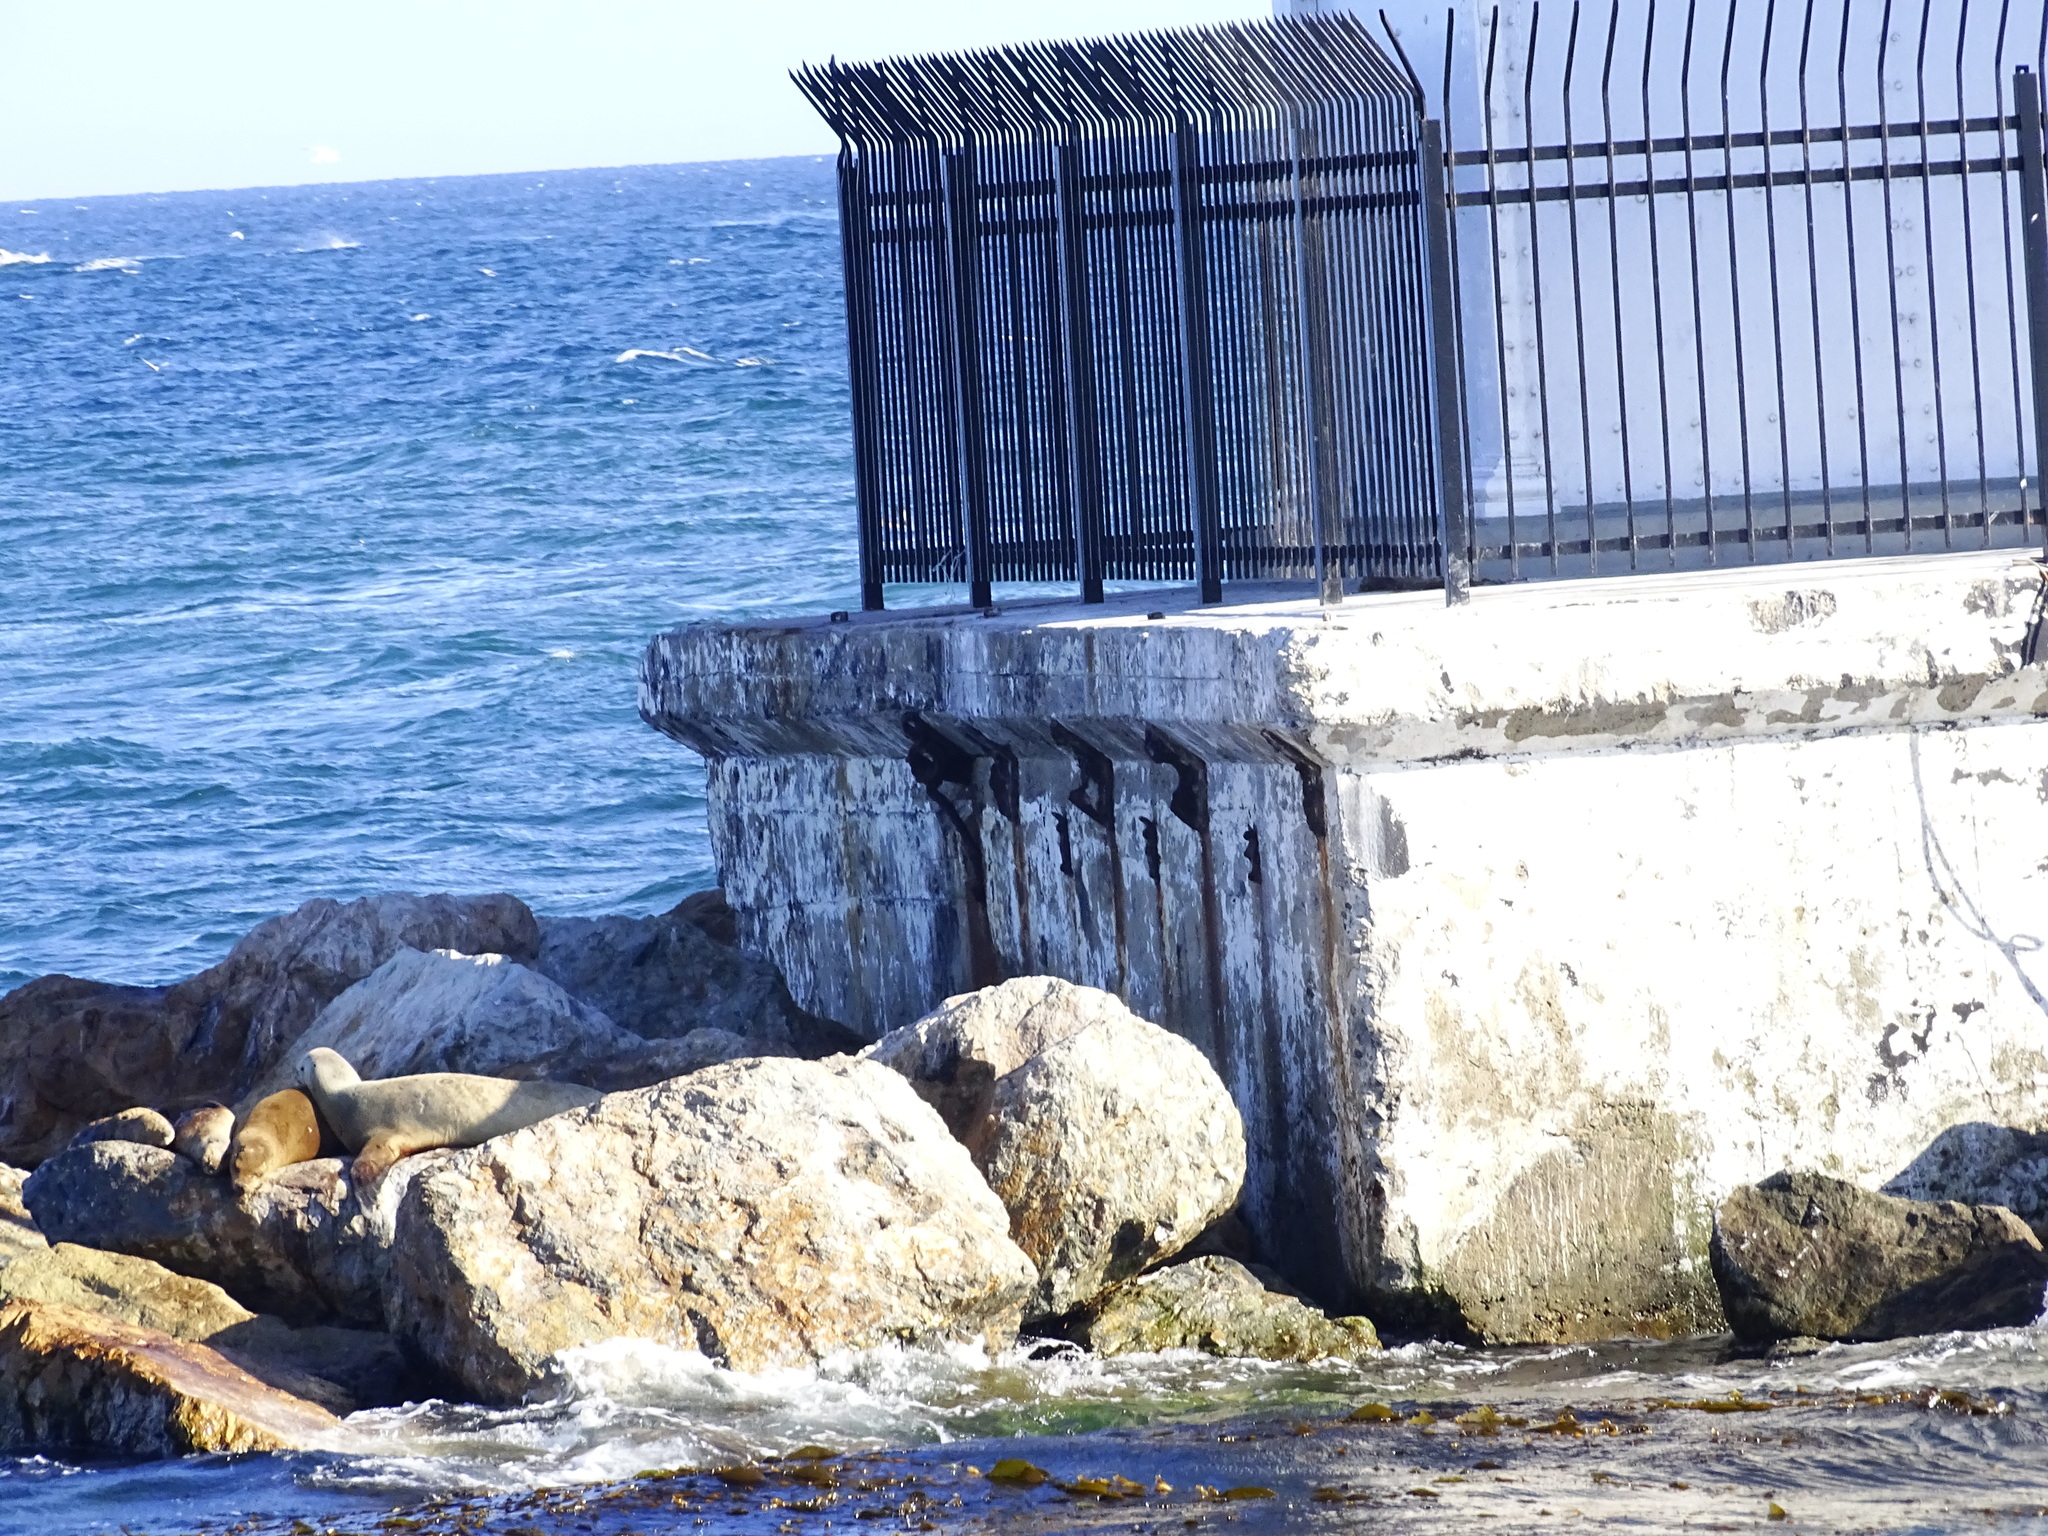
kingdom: Animalia
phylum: Chordata
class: Mammalia
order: Carnivora
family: Otariidae
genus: Zalophus
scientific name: Zalophus californianus
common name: California sea lion
